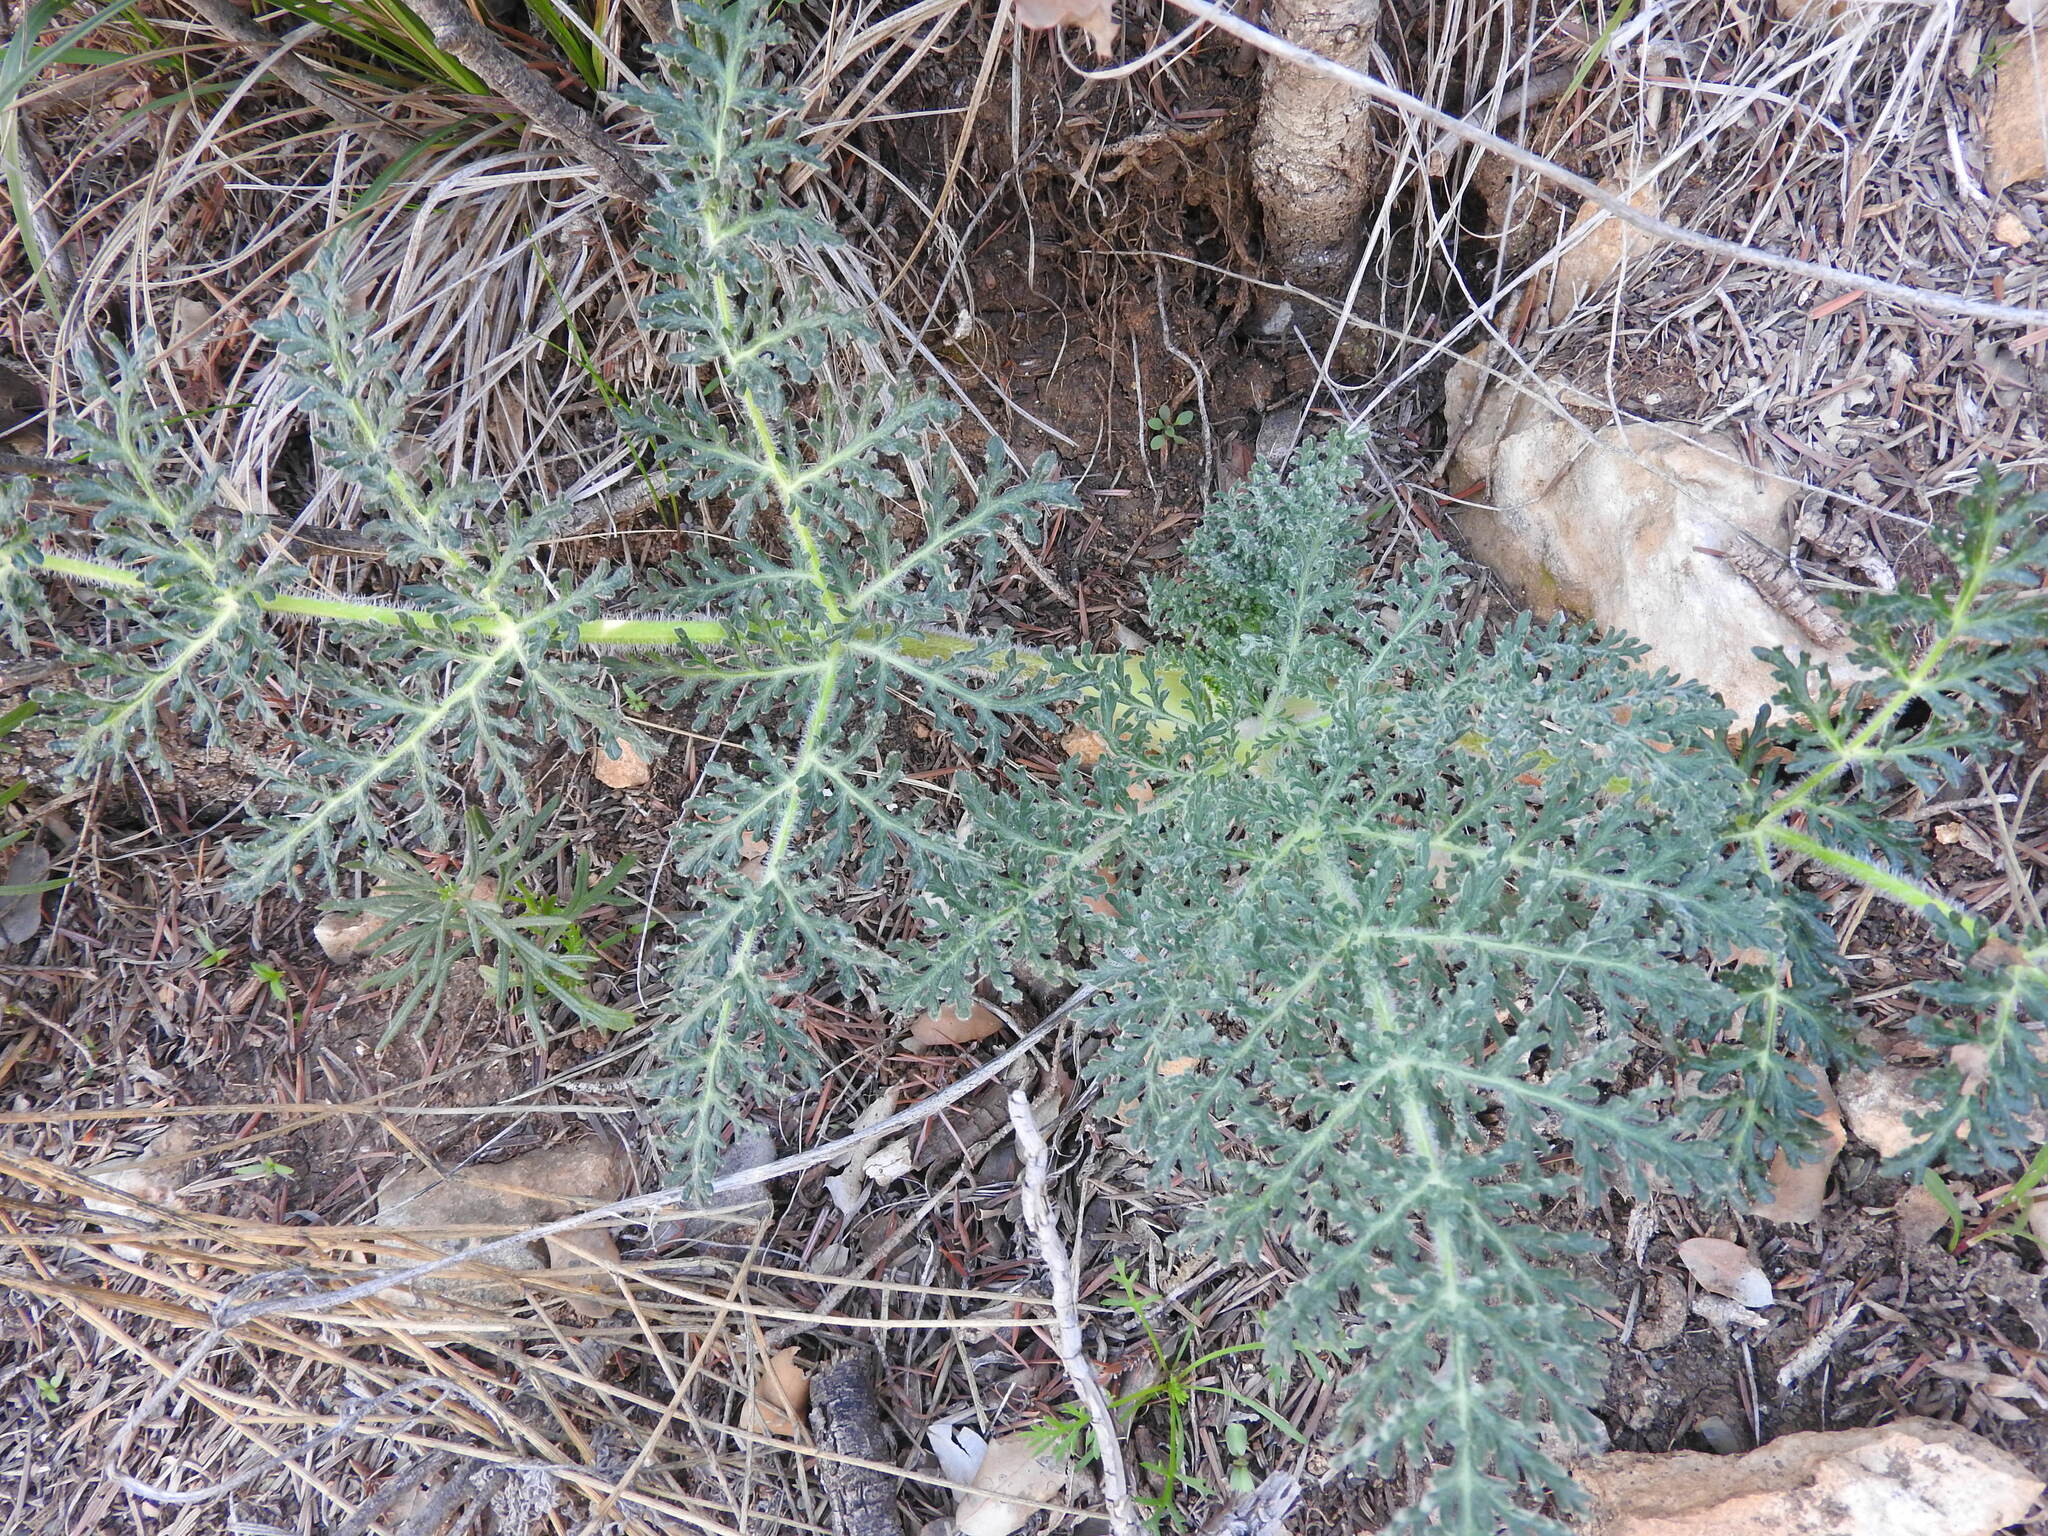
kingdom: Plantae
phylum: Tracheophyta
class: Magnoliopsida
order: Apiales
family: Apiaceae
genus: Thapsia
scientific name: Thapsia villosa
